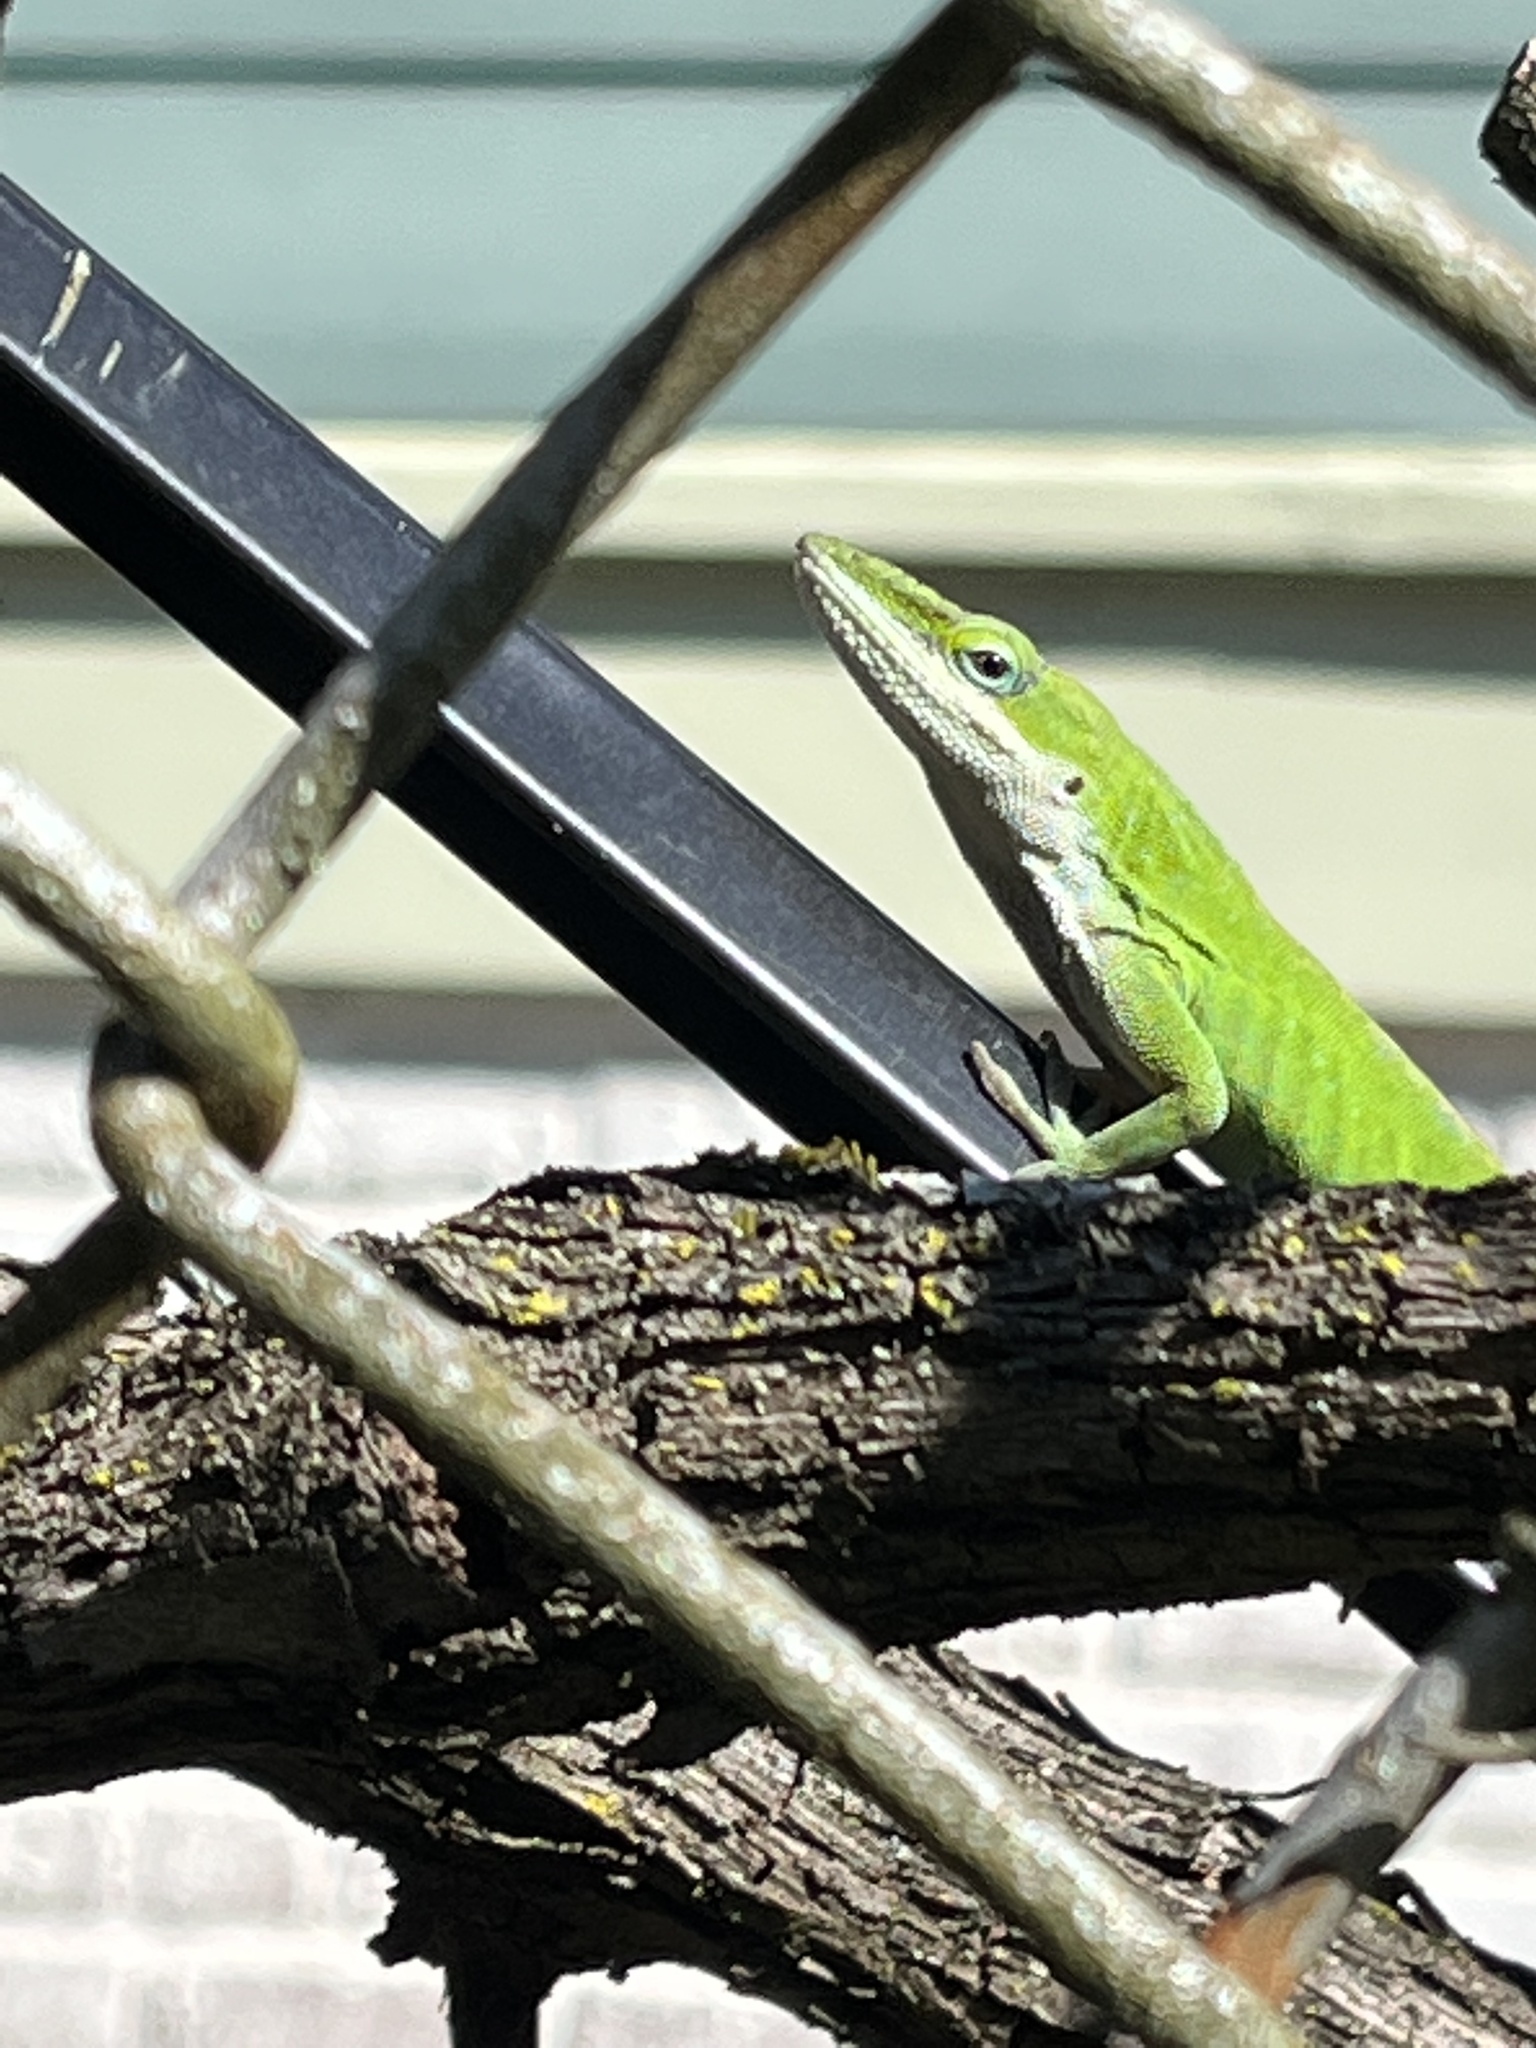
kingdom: Animalia
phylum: Chordata
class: Squamata
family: Dactyloidae
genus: Anolis
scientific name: Anolis carolinensis
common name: Green anole
